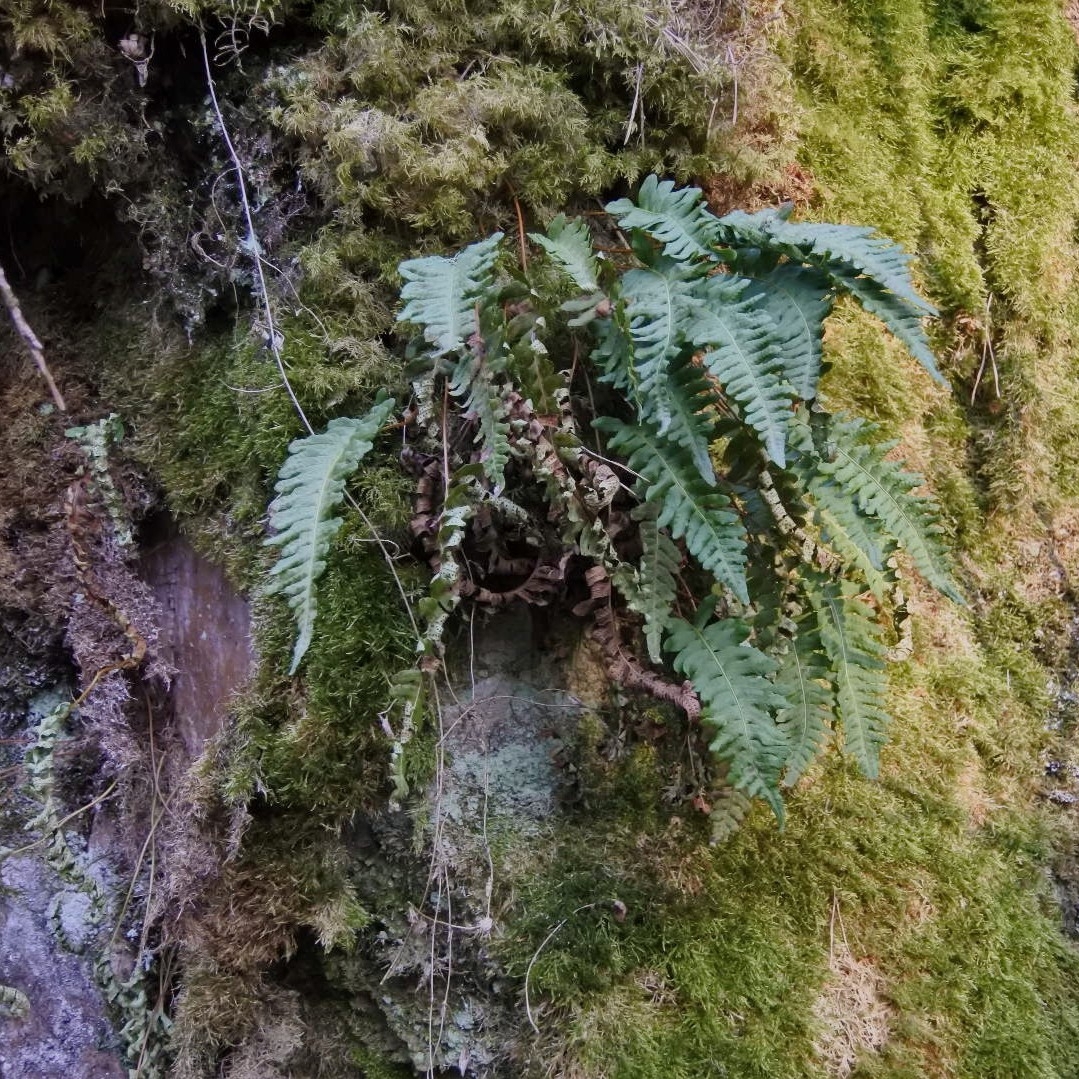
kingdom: Plantae
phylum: Tracheophyta
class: Polypodiopsida
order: Polypodiales
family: Polypodiaceae
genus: Polypodium
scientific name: Polypodium vulgare
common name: Common polypody
